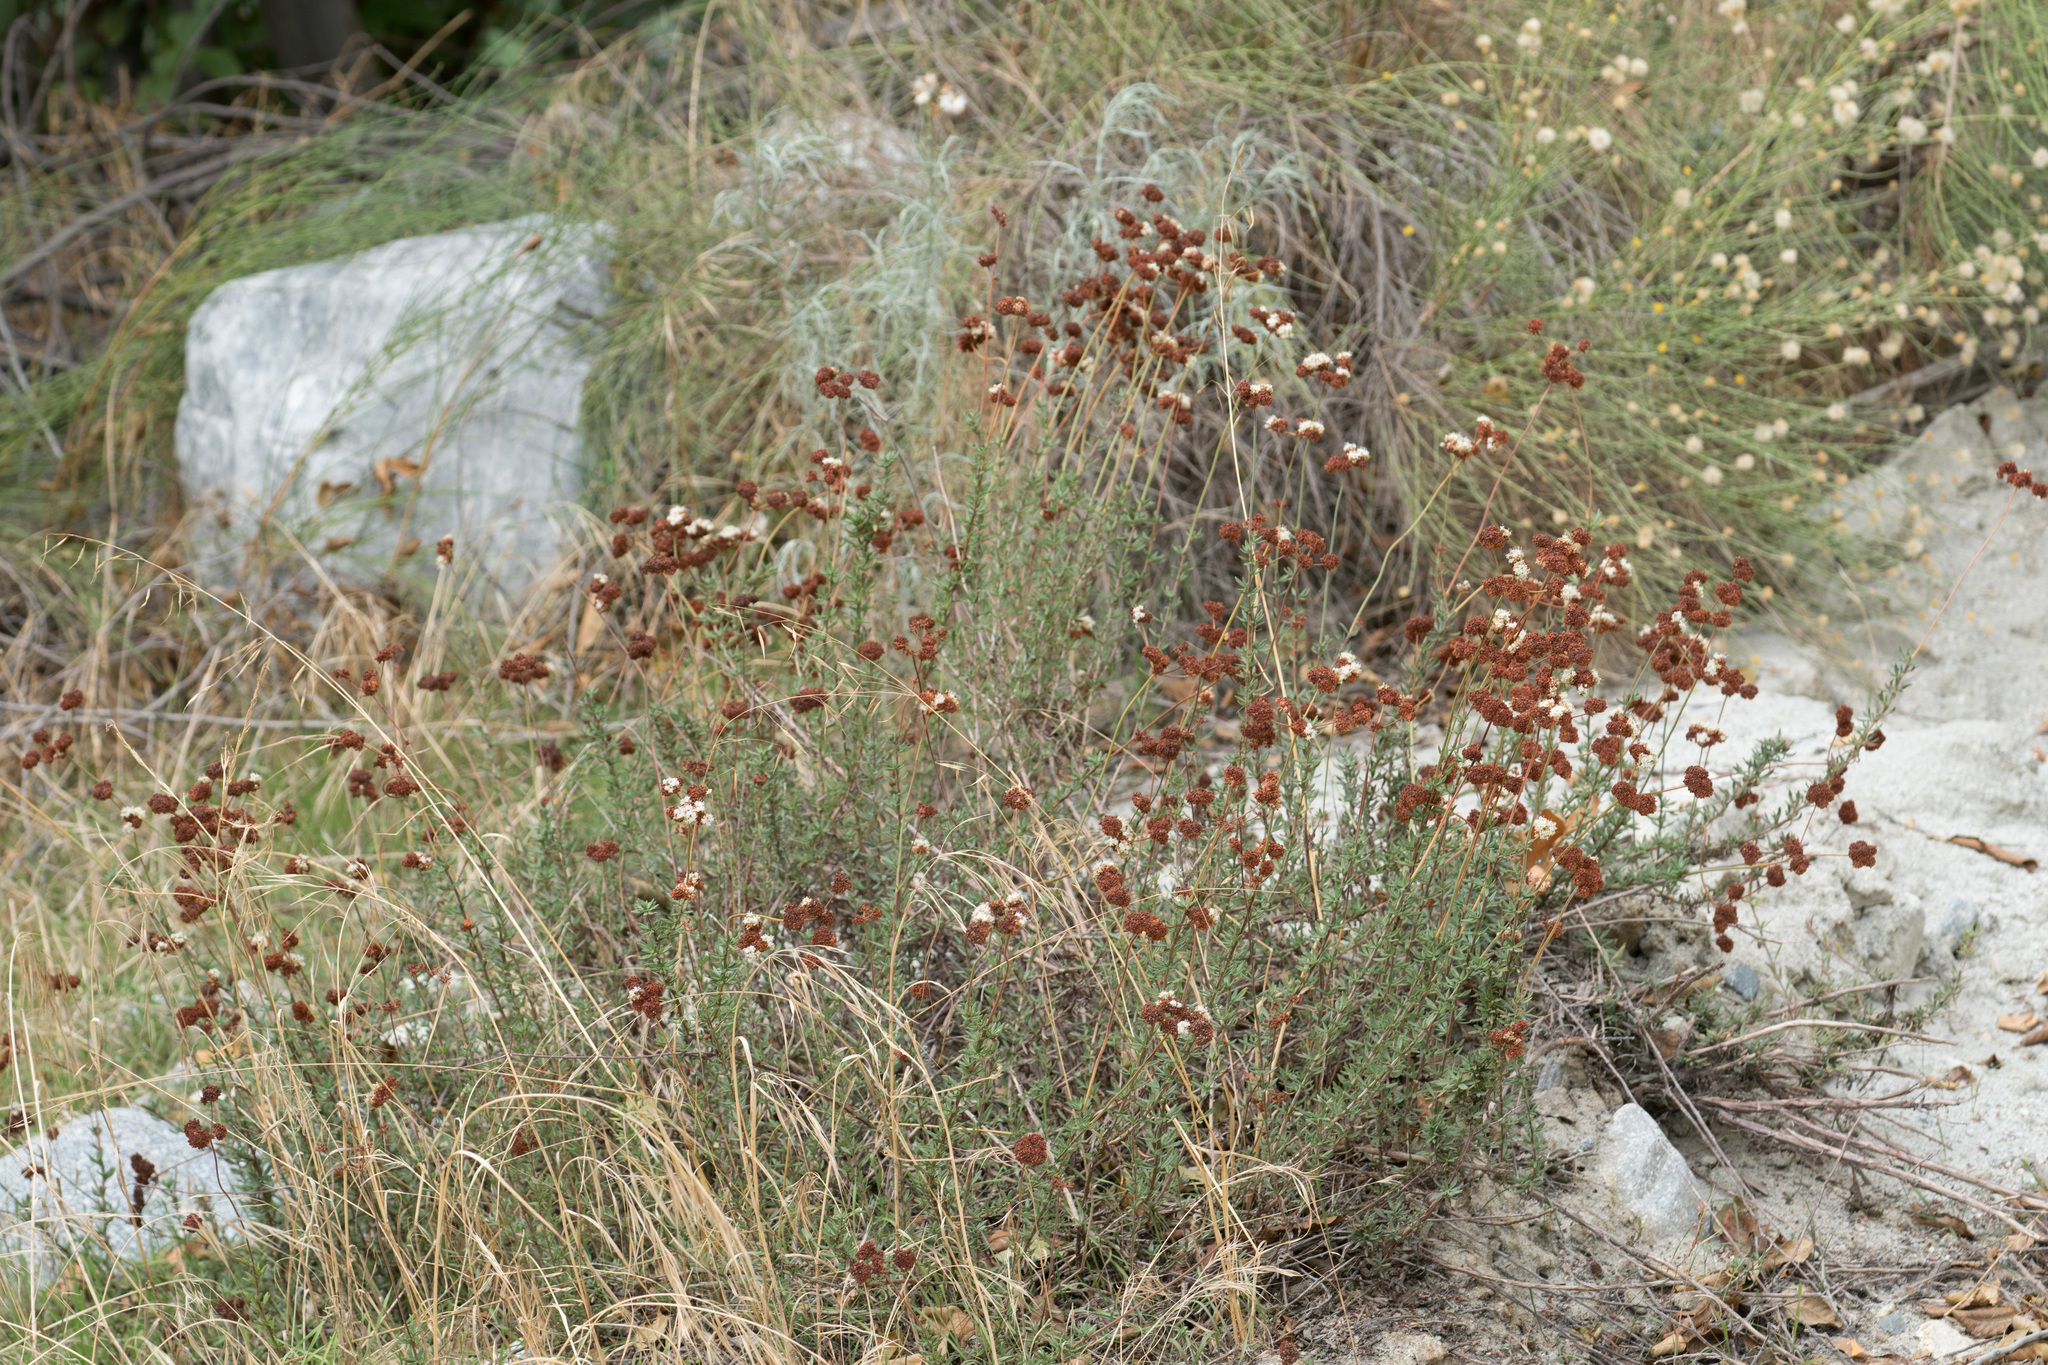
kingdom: Plantae
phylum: Tracheophyta
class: Magnoliopsida
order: Caryophyllales
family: Polygonaceae
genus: Eriogonum
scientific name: Eriogonum fasciculatum
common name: California wild buckwheat
